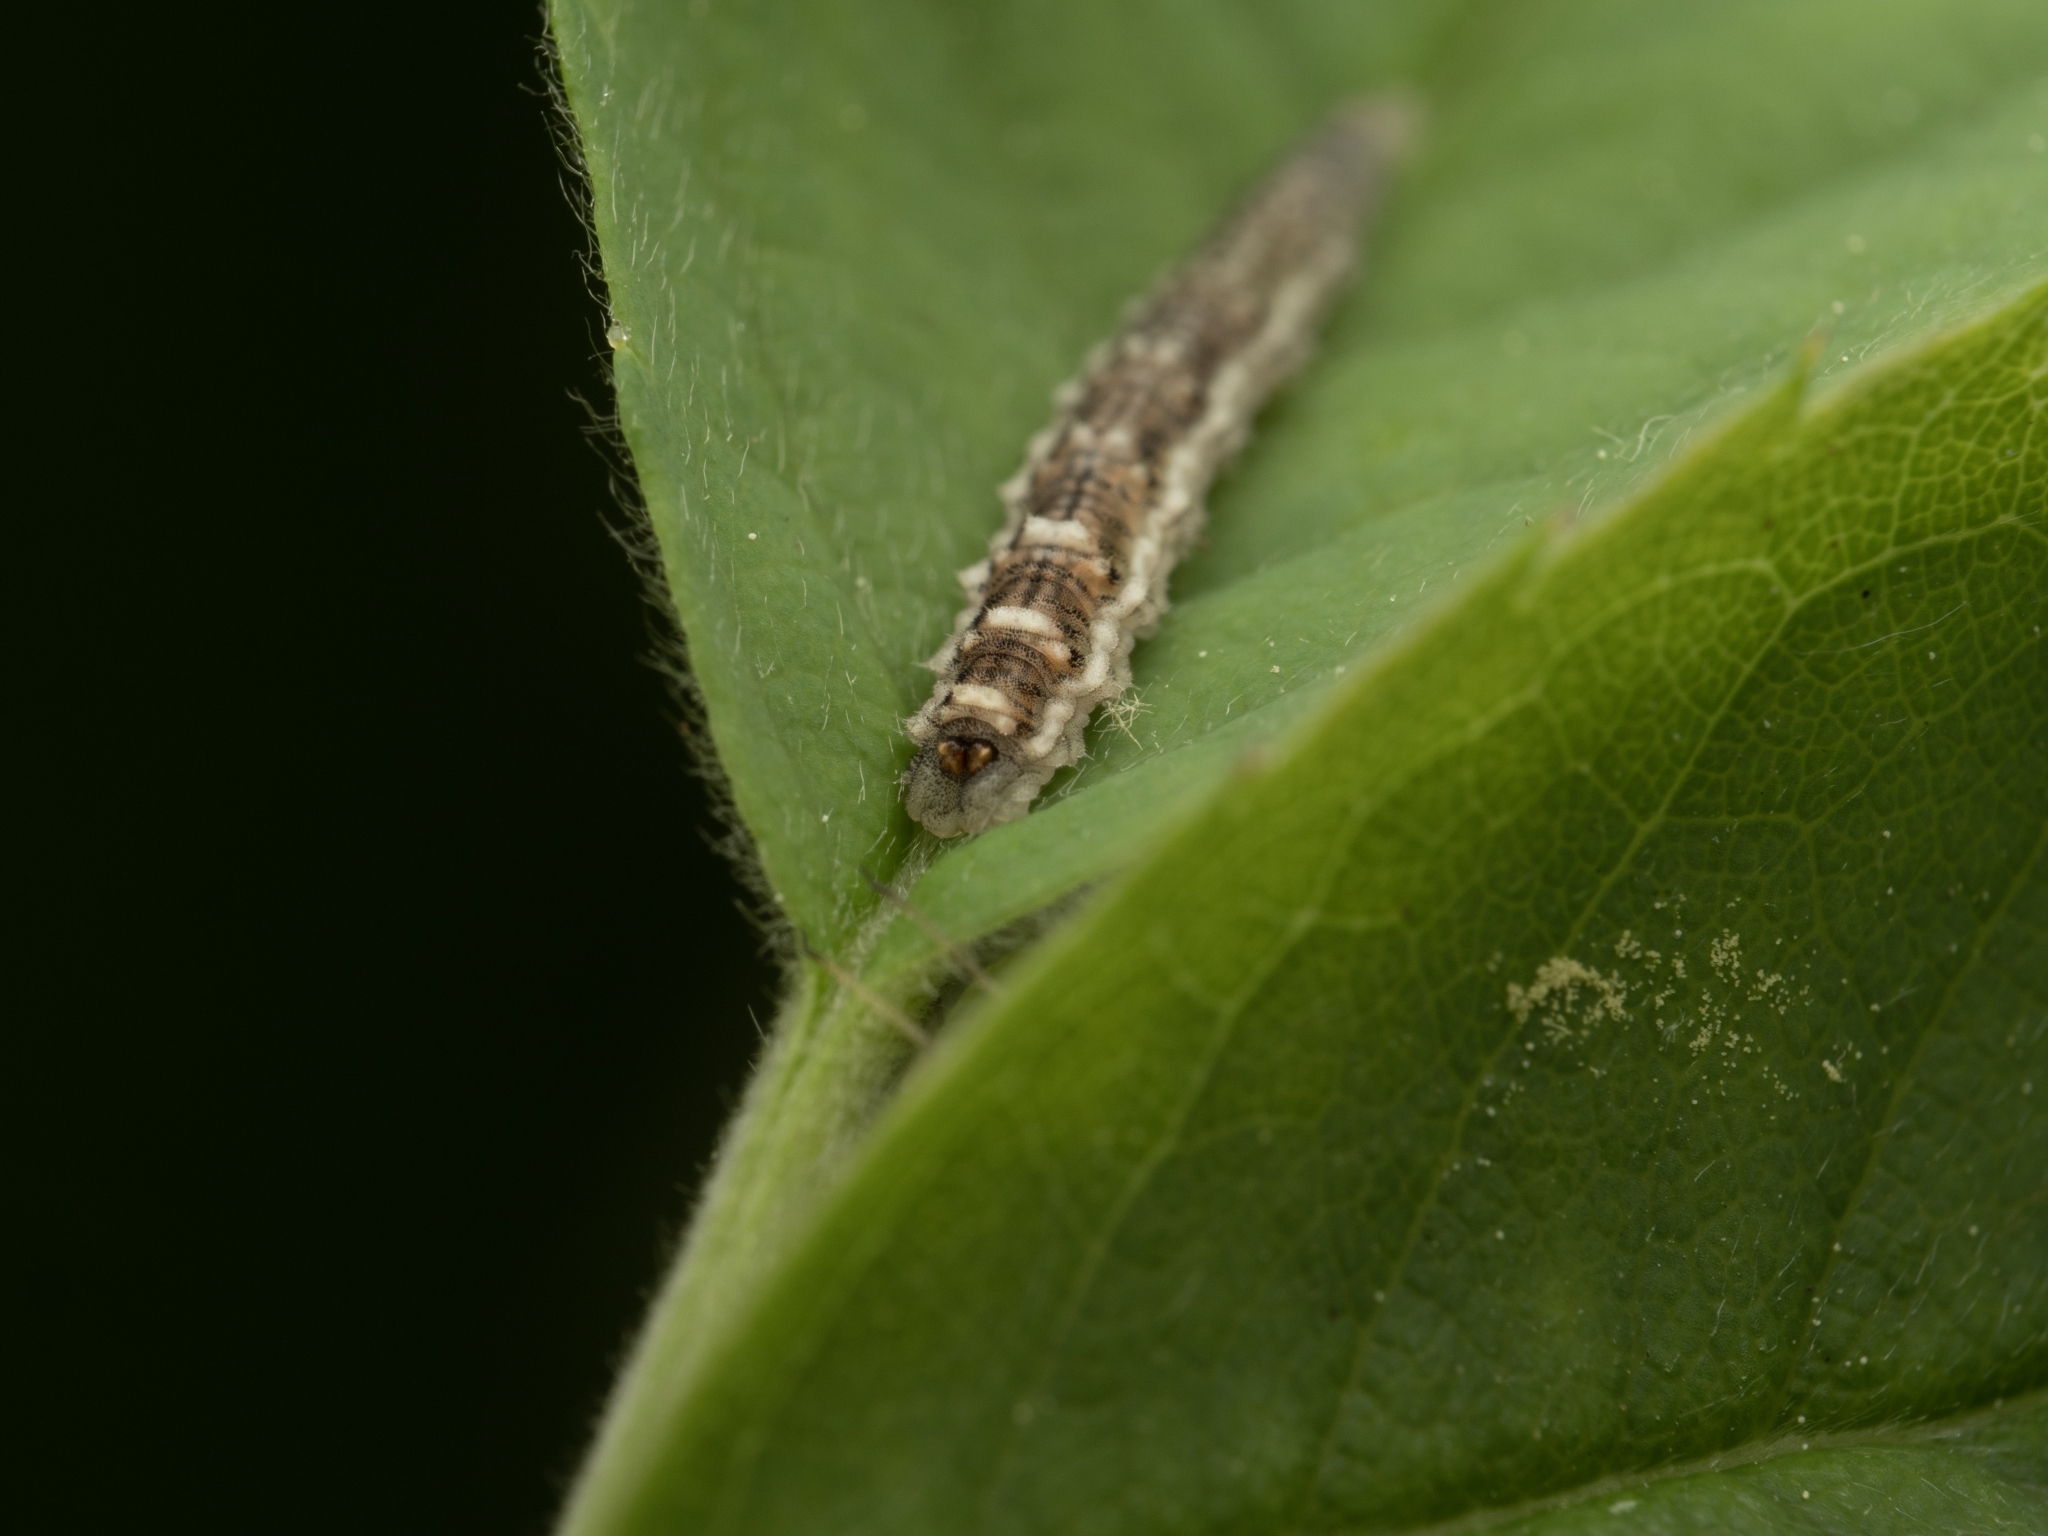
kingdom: Animalia
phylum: Arthropoda
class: Insecta
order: Diptera
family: Syrphidae
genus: Eupeodes
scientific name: Eupeodes
